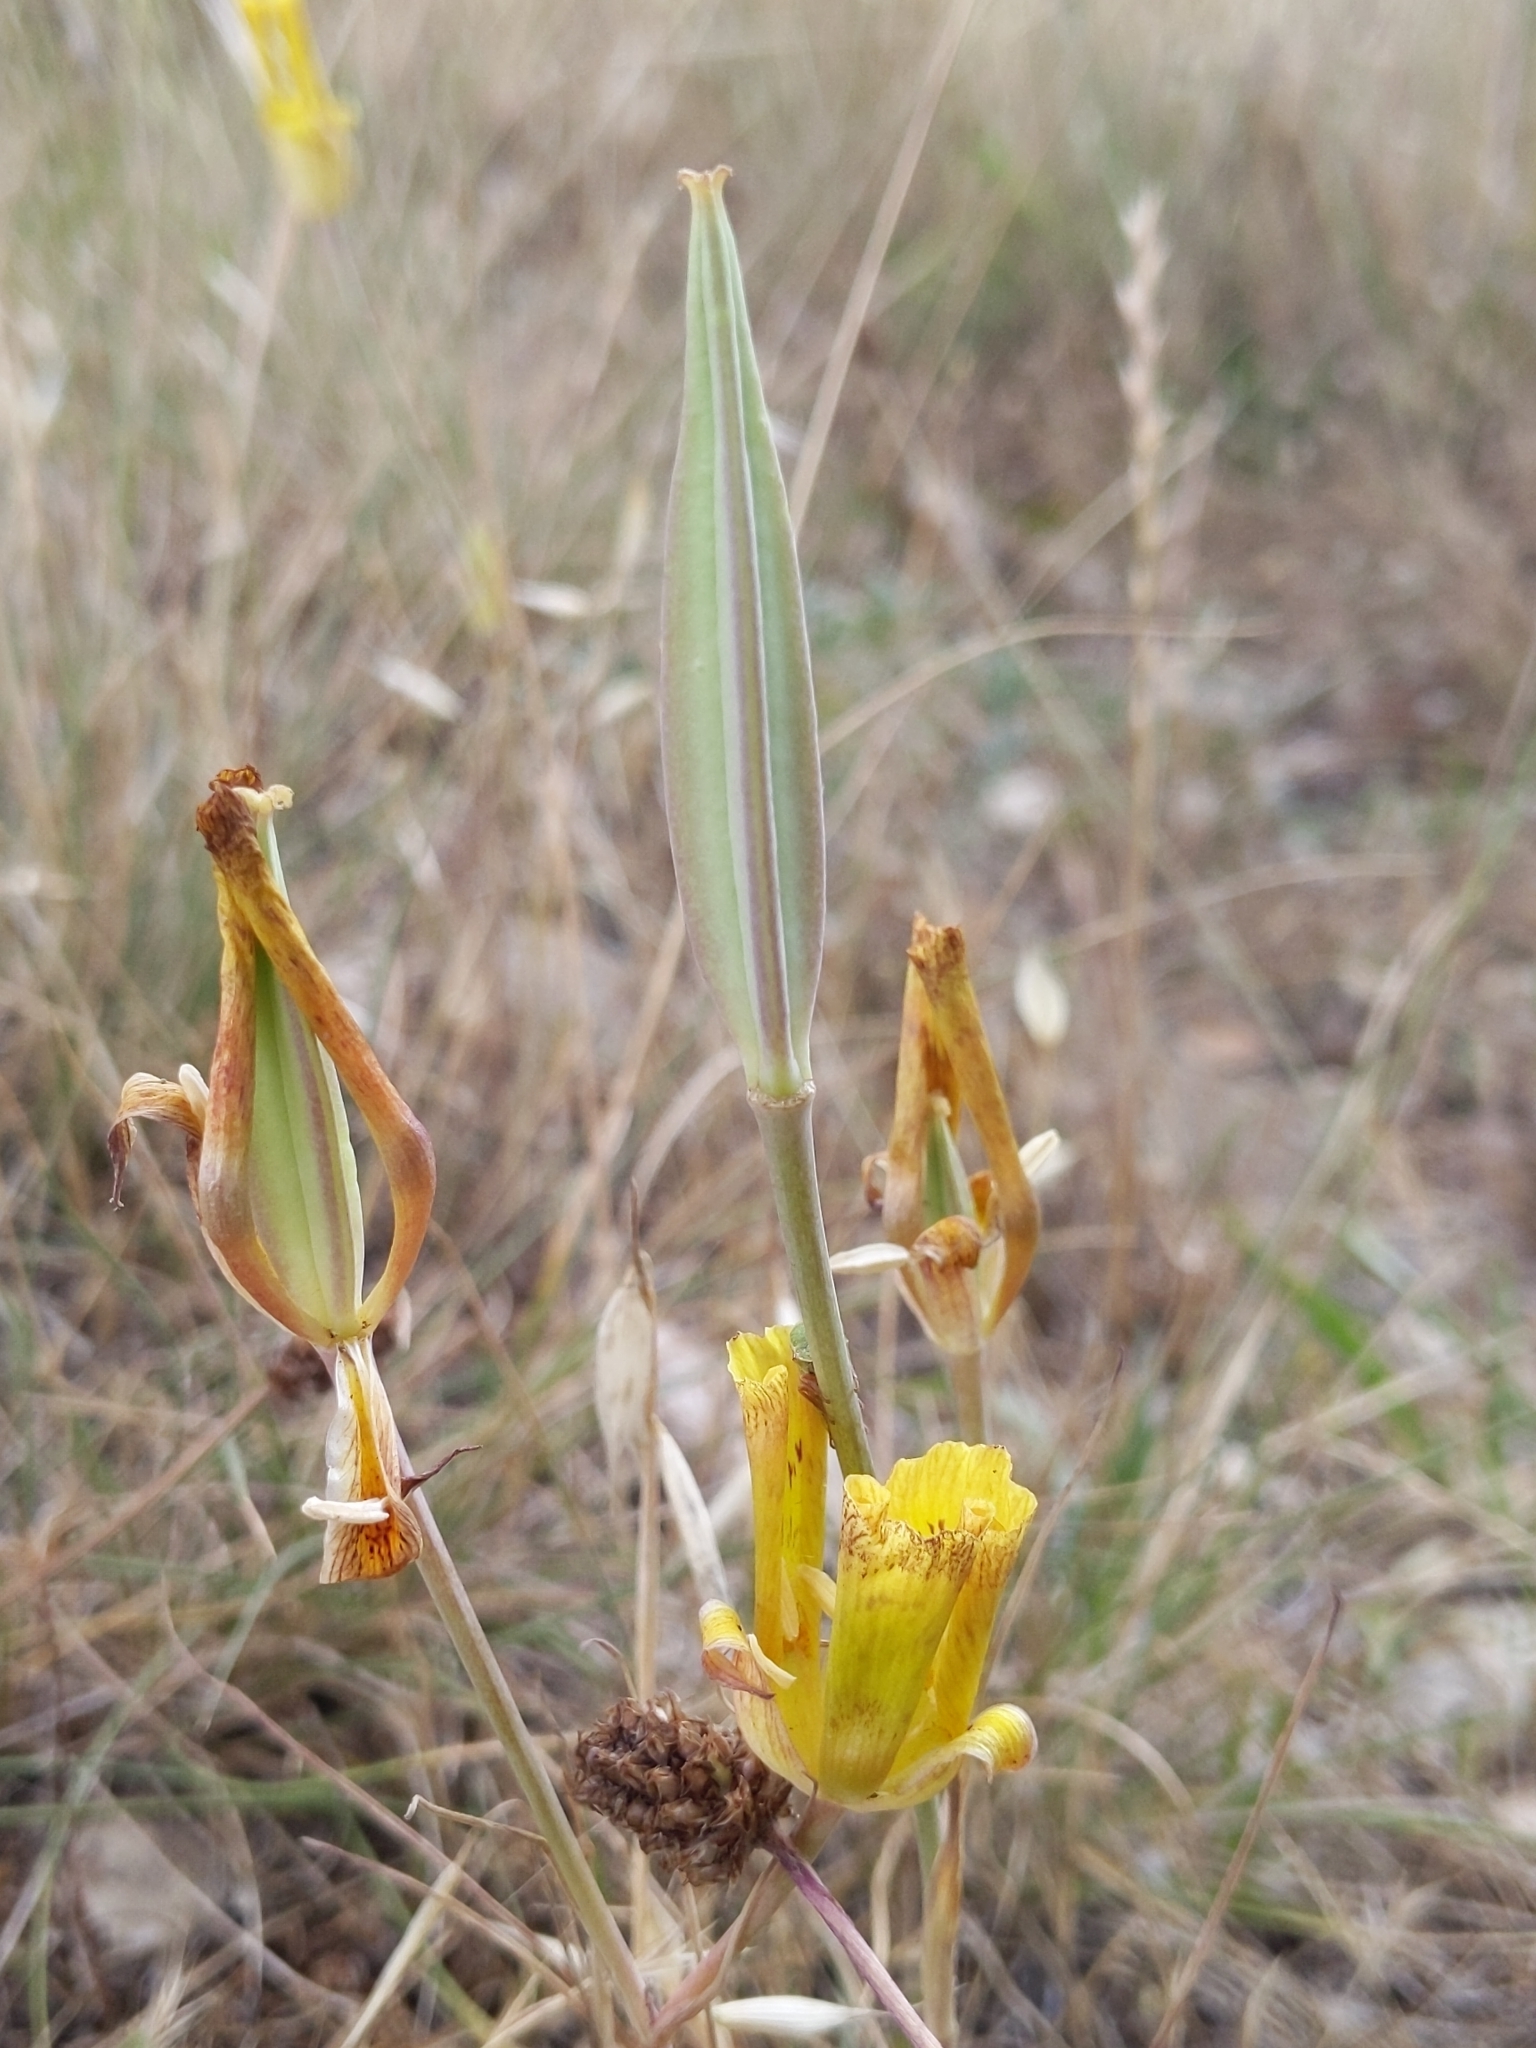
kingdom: Plantae
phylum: Tracheophyta
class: Liliopsida
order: Liliales
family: Liliaceae
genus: Calochortus
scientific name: Calochortus luteus
